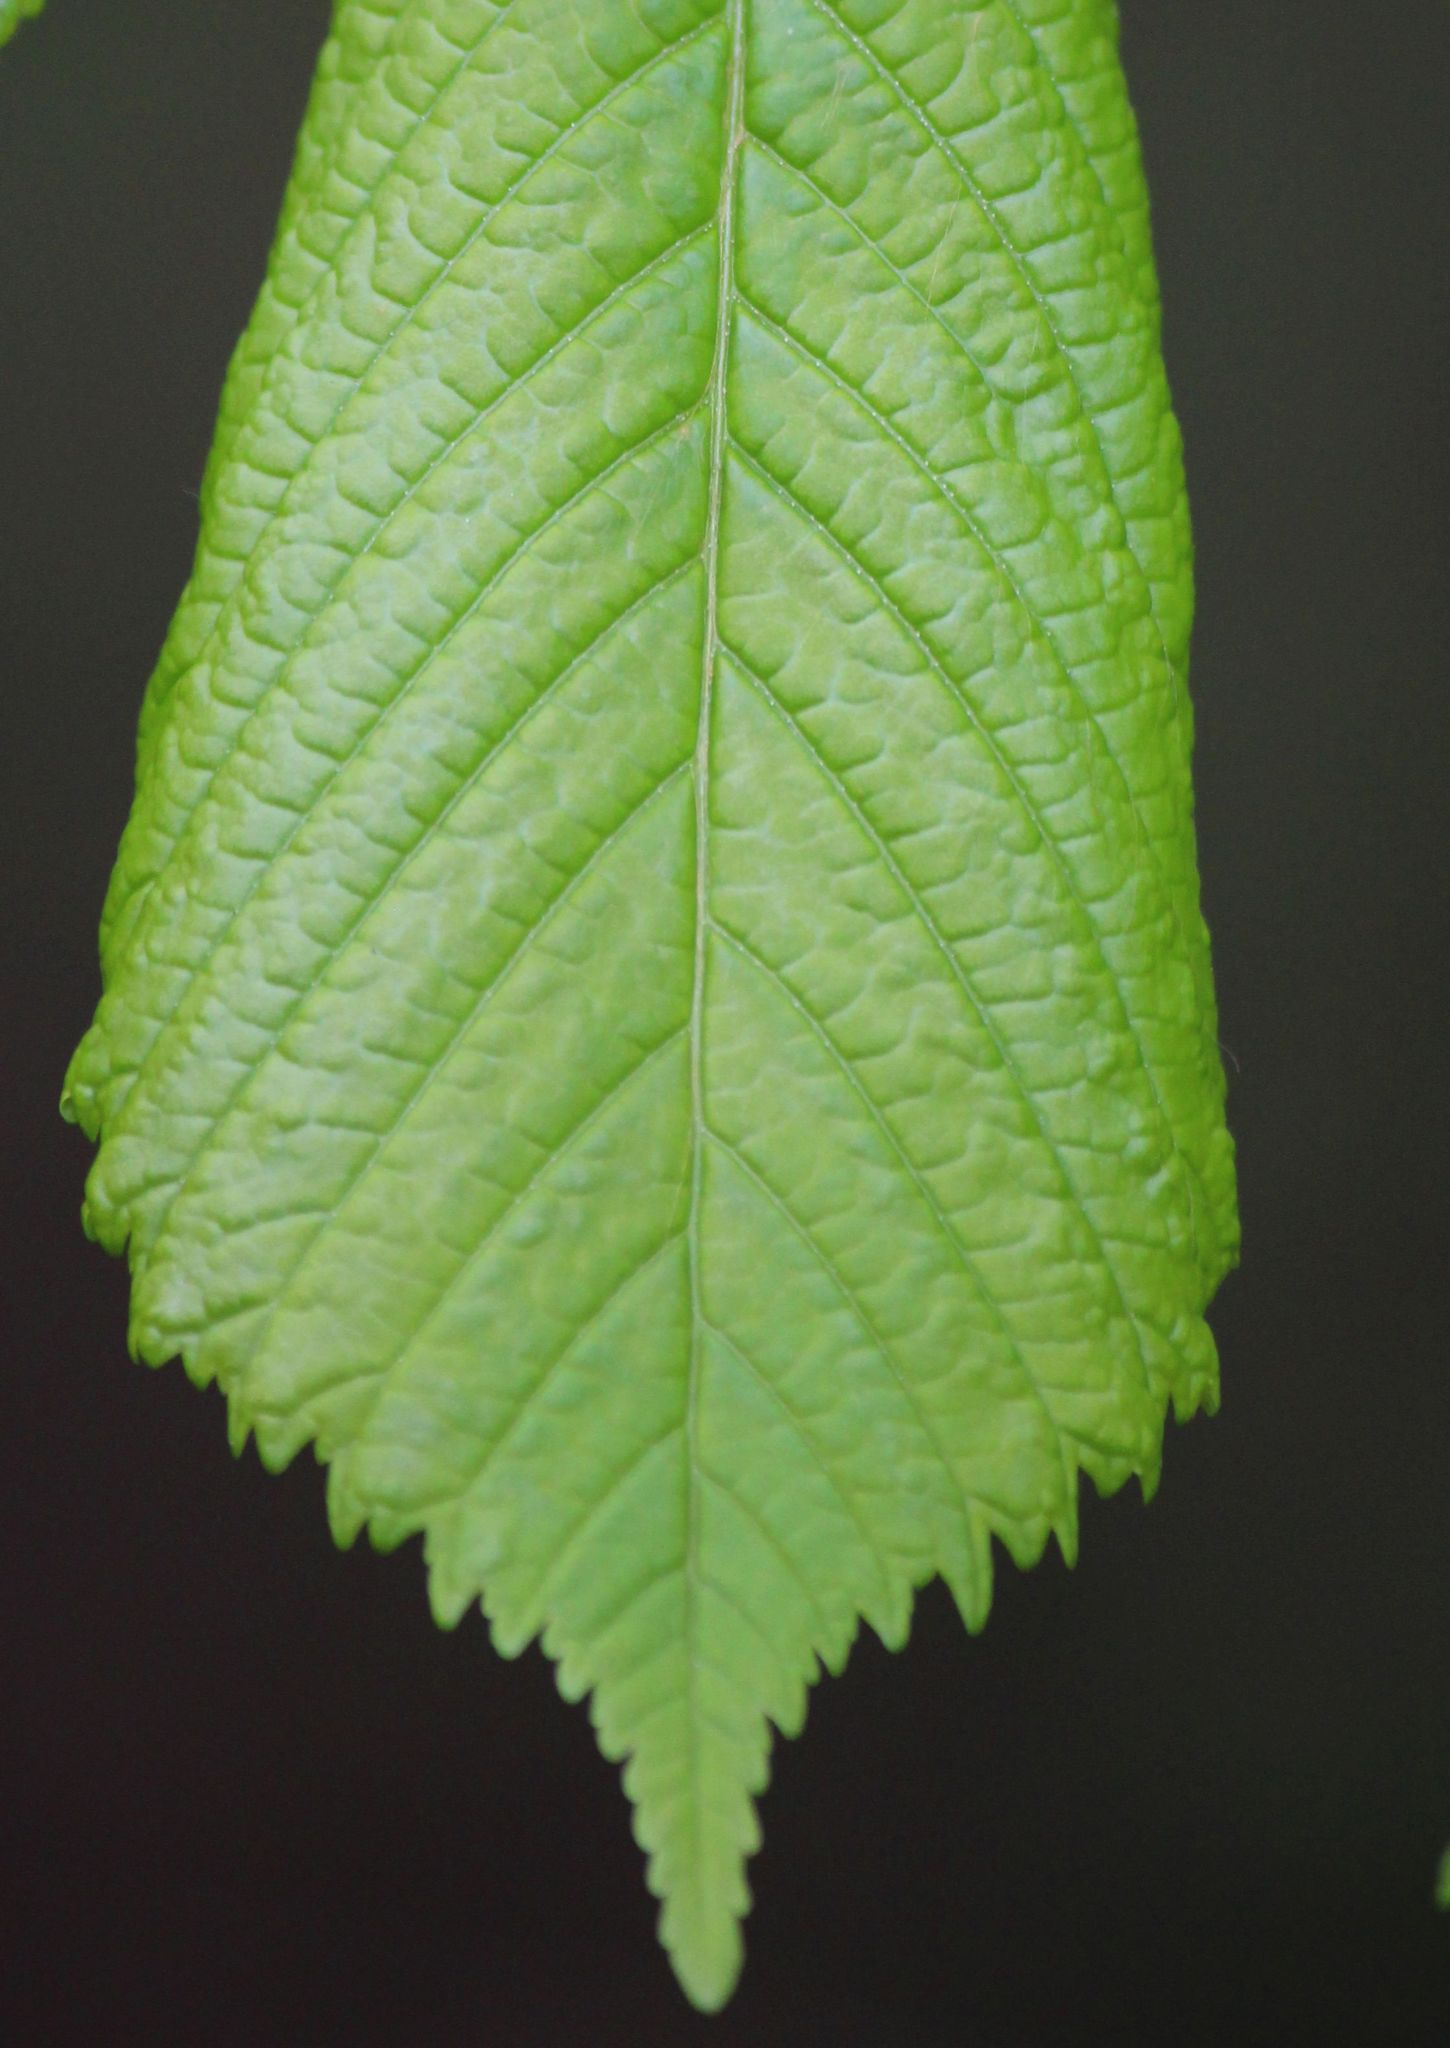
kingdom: Plantae
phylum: Tracheophyta
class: Magnoliopsida
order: Sapindales
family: Sapindaceae
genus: Aesculus
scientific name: Aesculus hippocastanum
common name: Horse-chestnut
